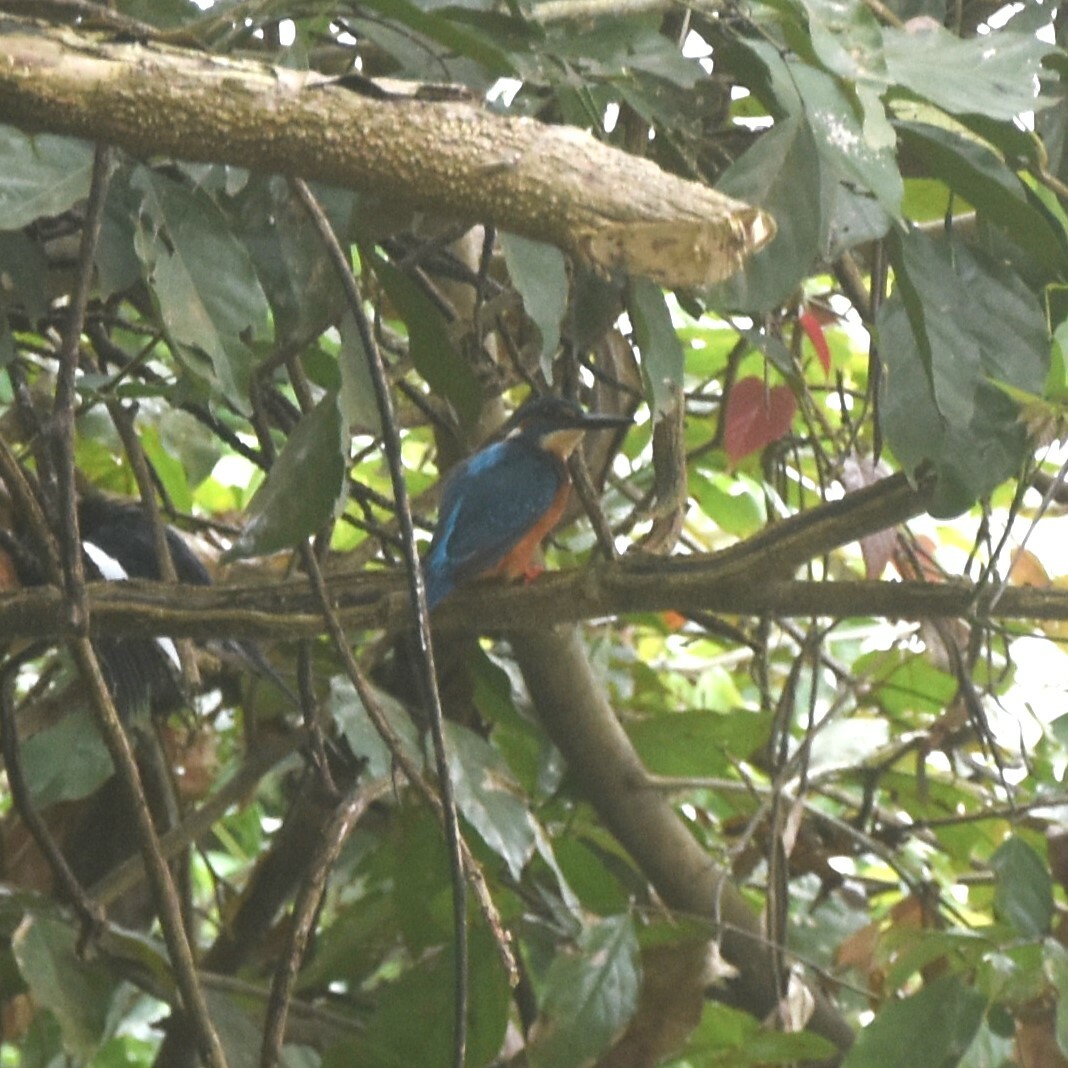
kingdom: Animalia
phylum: Chordata
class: Aves
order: Coraciiformes
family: Alcedinidae
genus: Alcedo
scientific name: Alcedo atthis
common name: Common kingfisher
